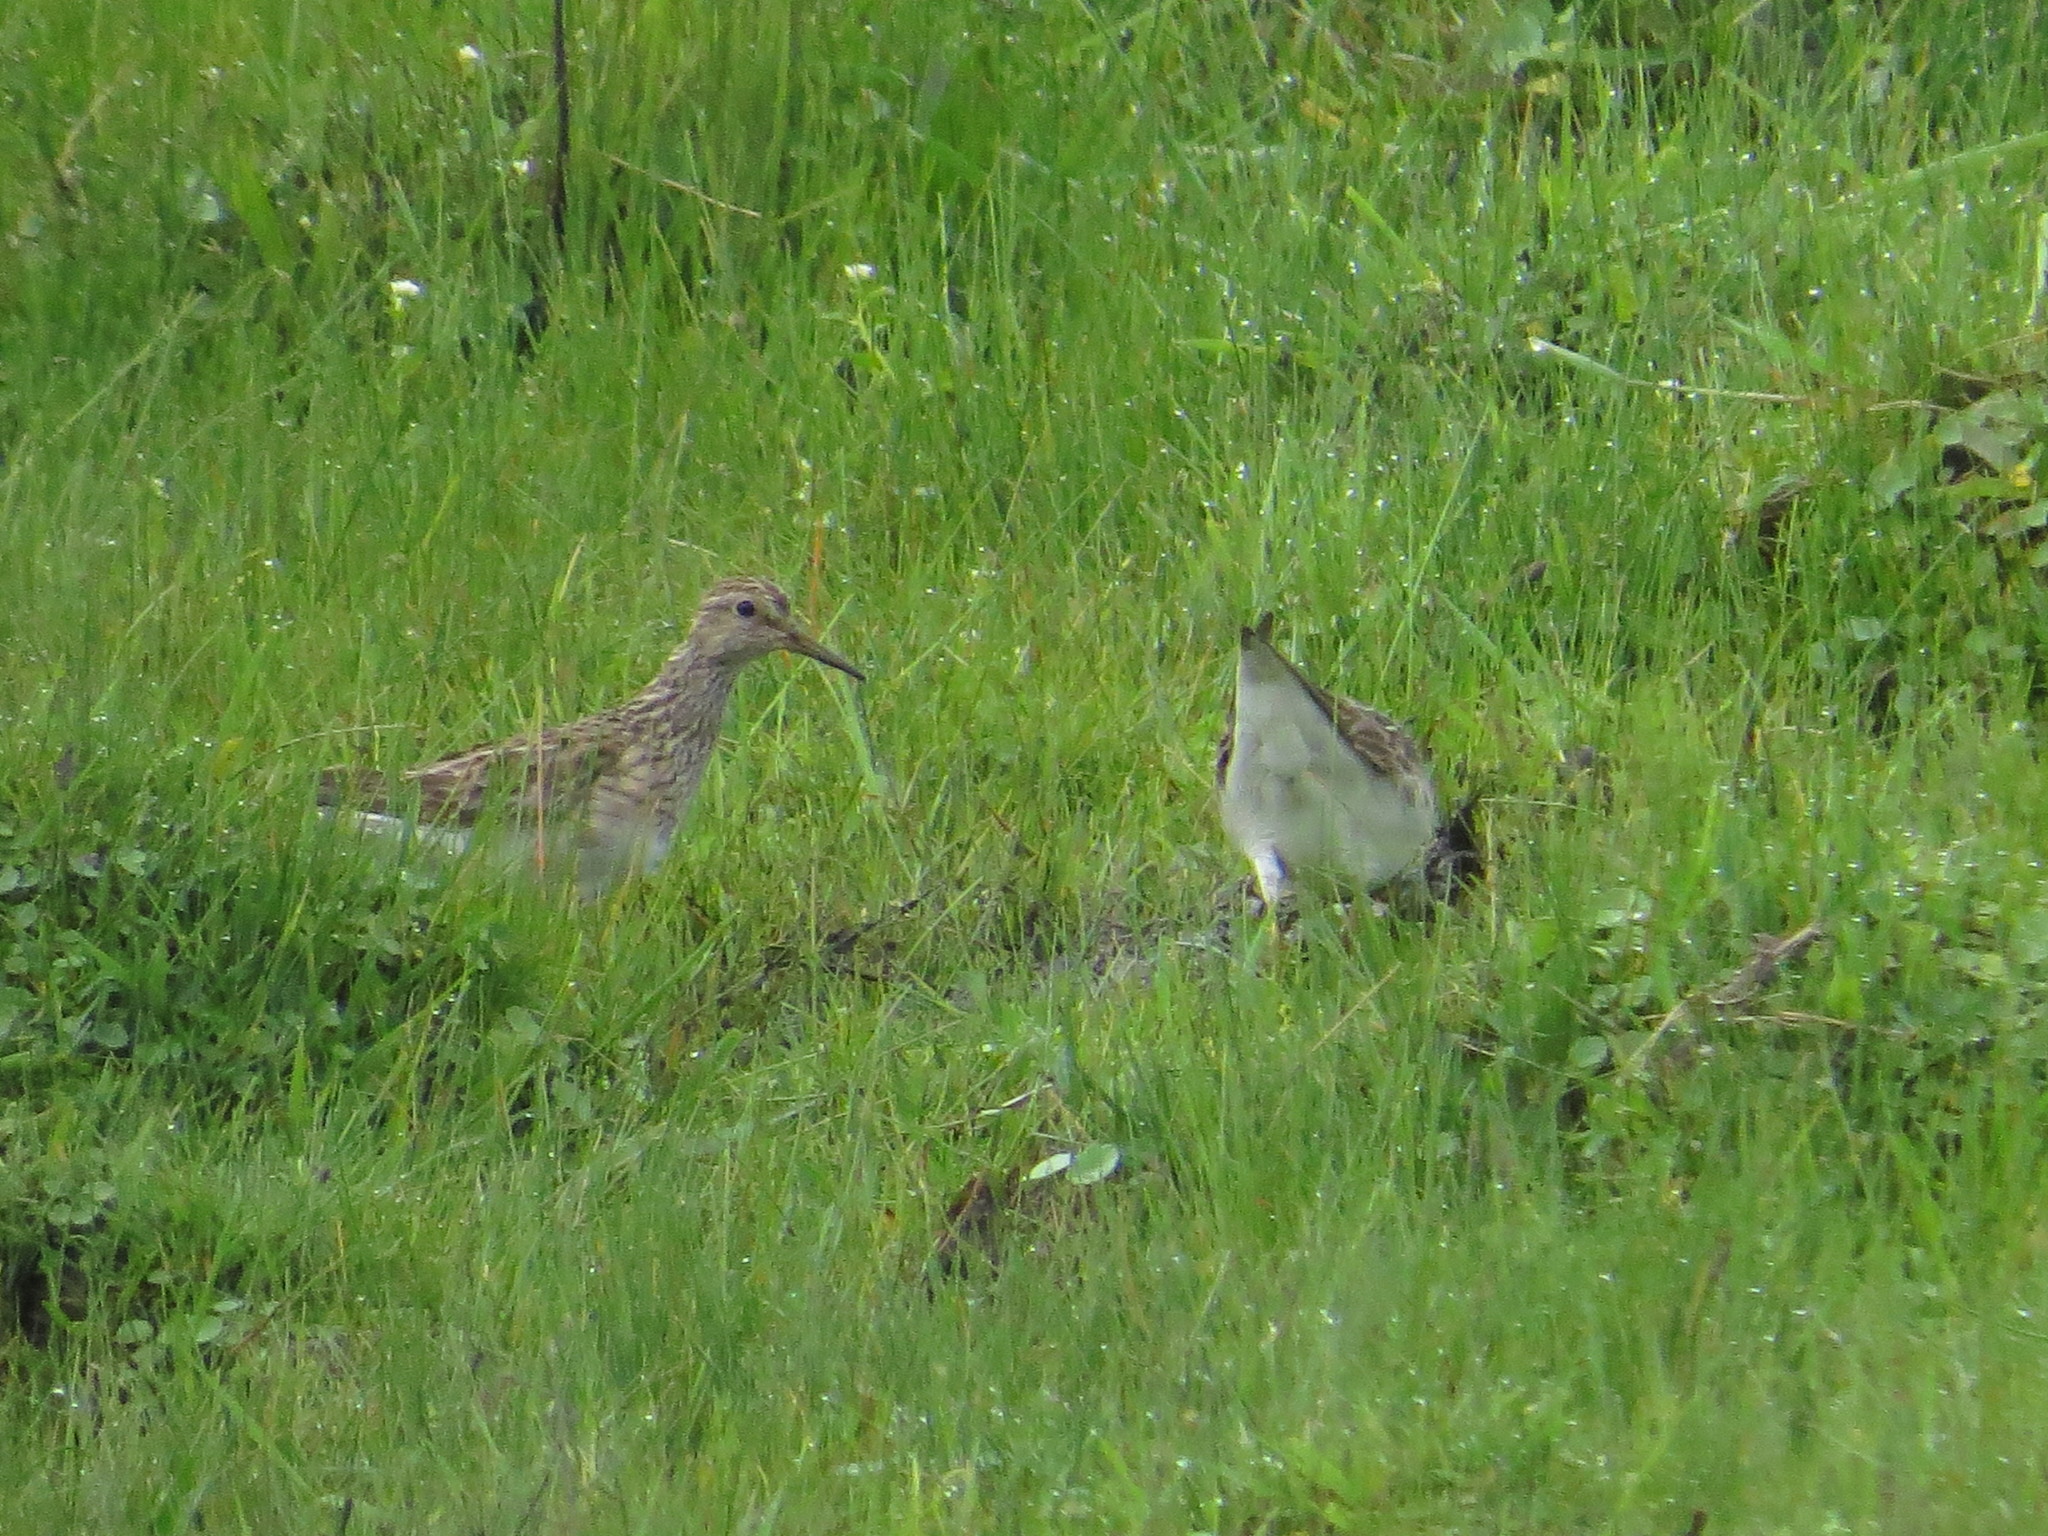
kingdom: Animalia
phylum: Chordata
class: Aves
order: Charadriiformes
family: Scolopacidae
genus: Calidris
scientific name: Calidris melanotos
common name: Pectoral sandpiper
